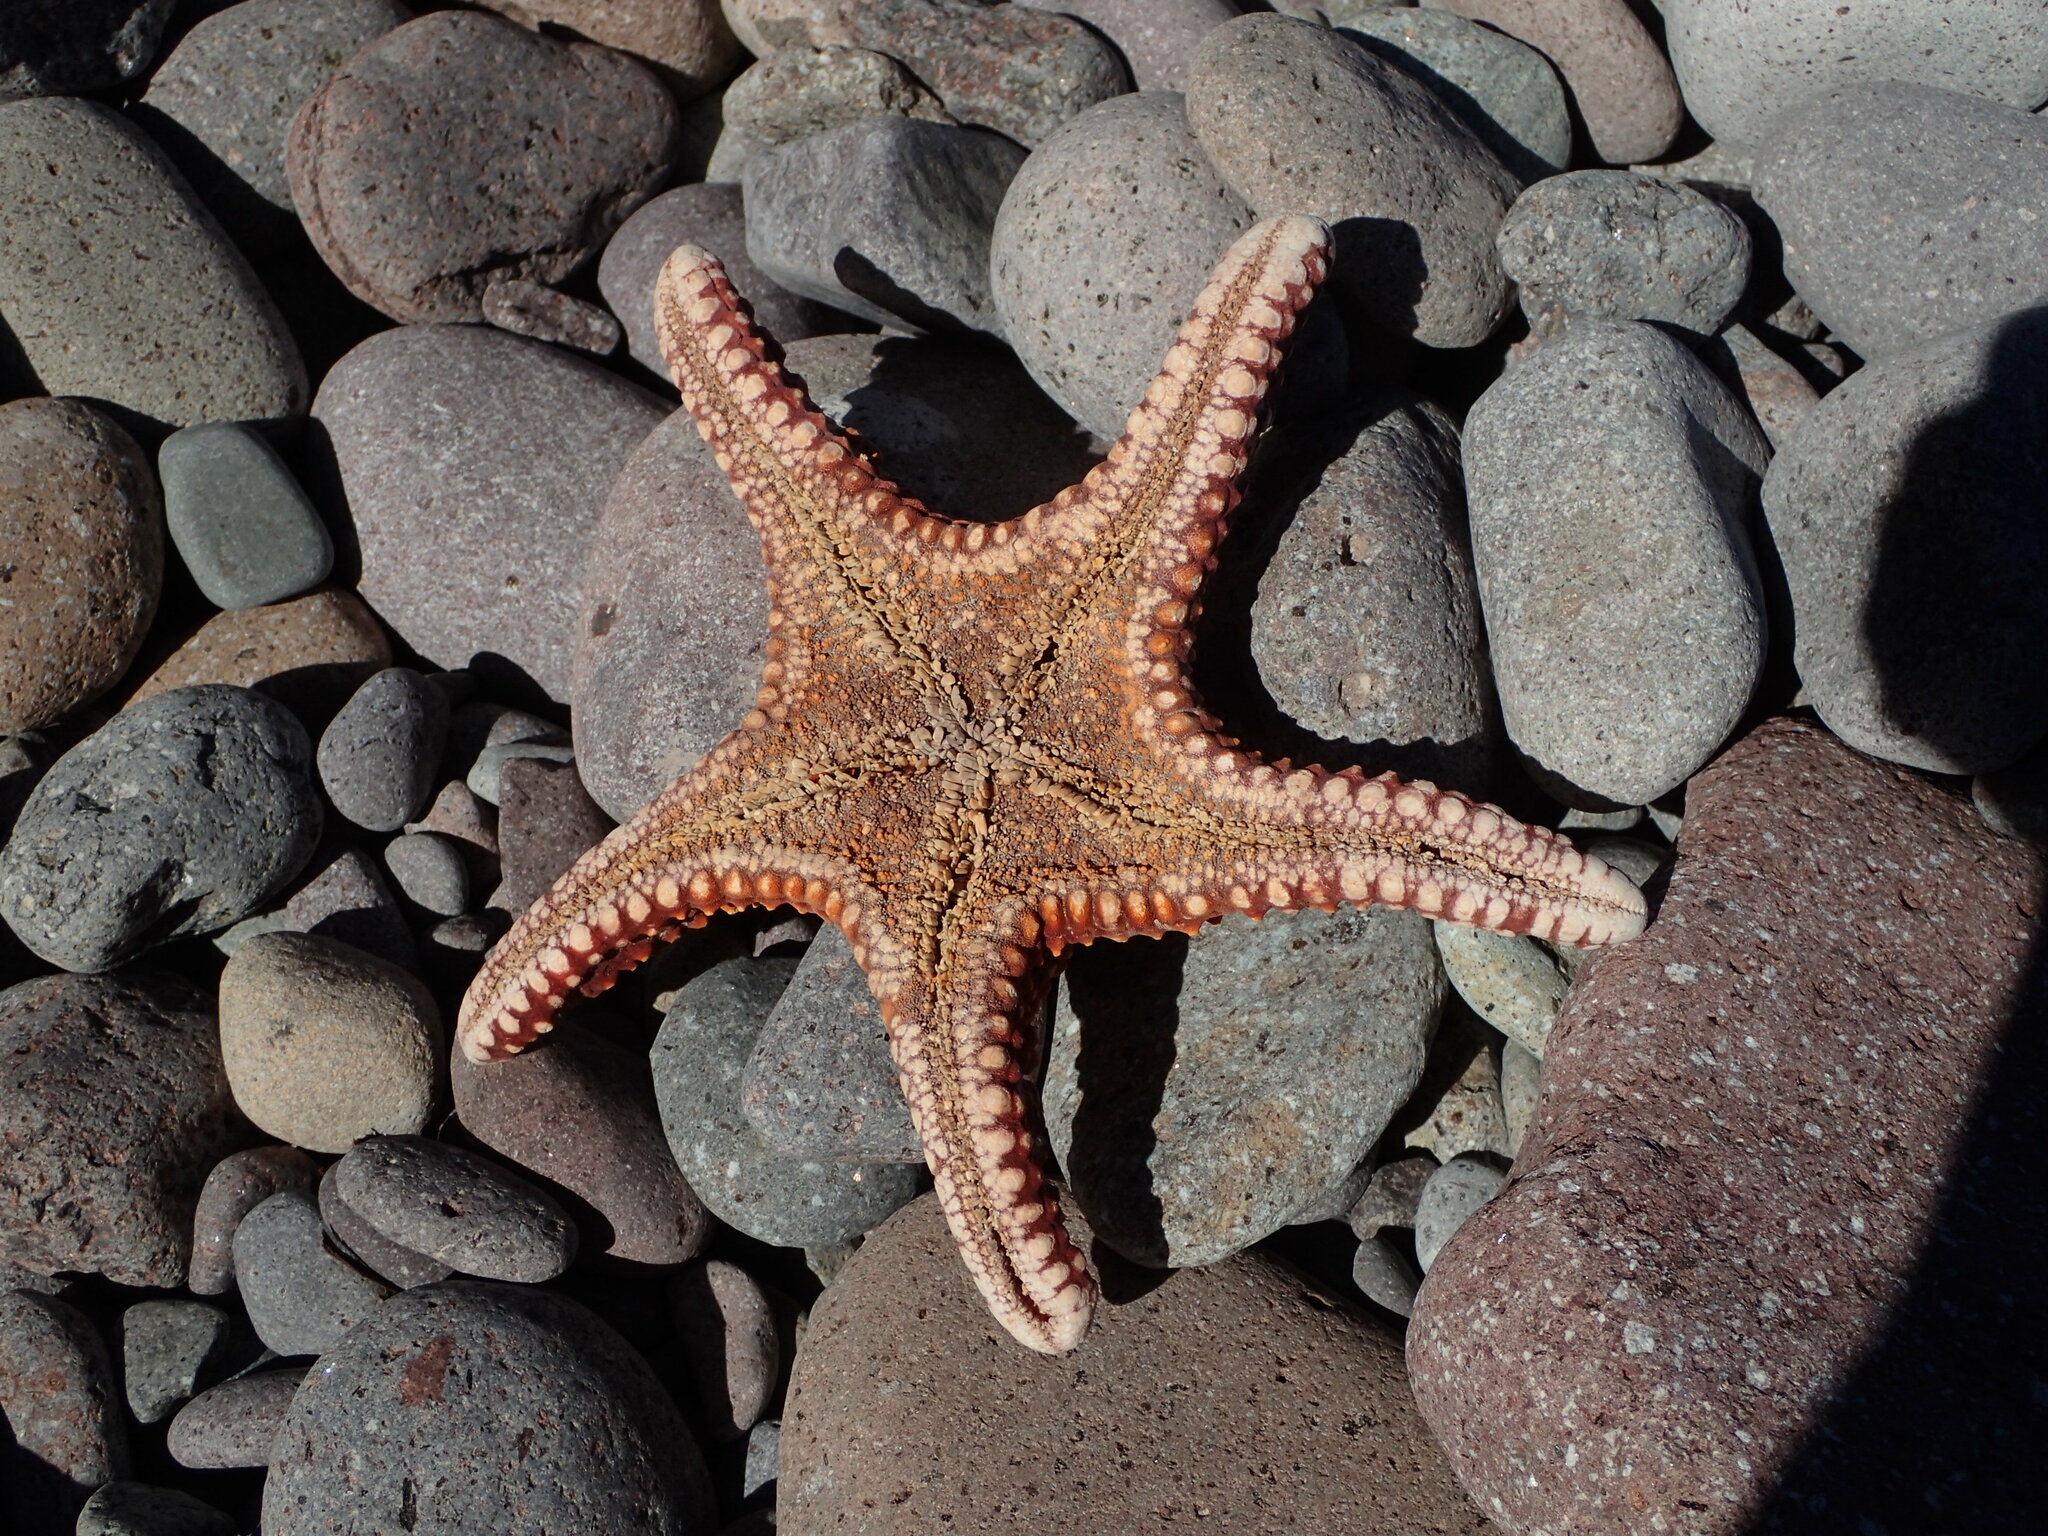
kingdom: Animalia
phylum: Echinodermata
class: Asteroidea
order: Valvatida
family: Oreasteridae
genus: Pentaceraster
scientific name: Pentaceraster cumingi
